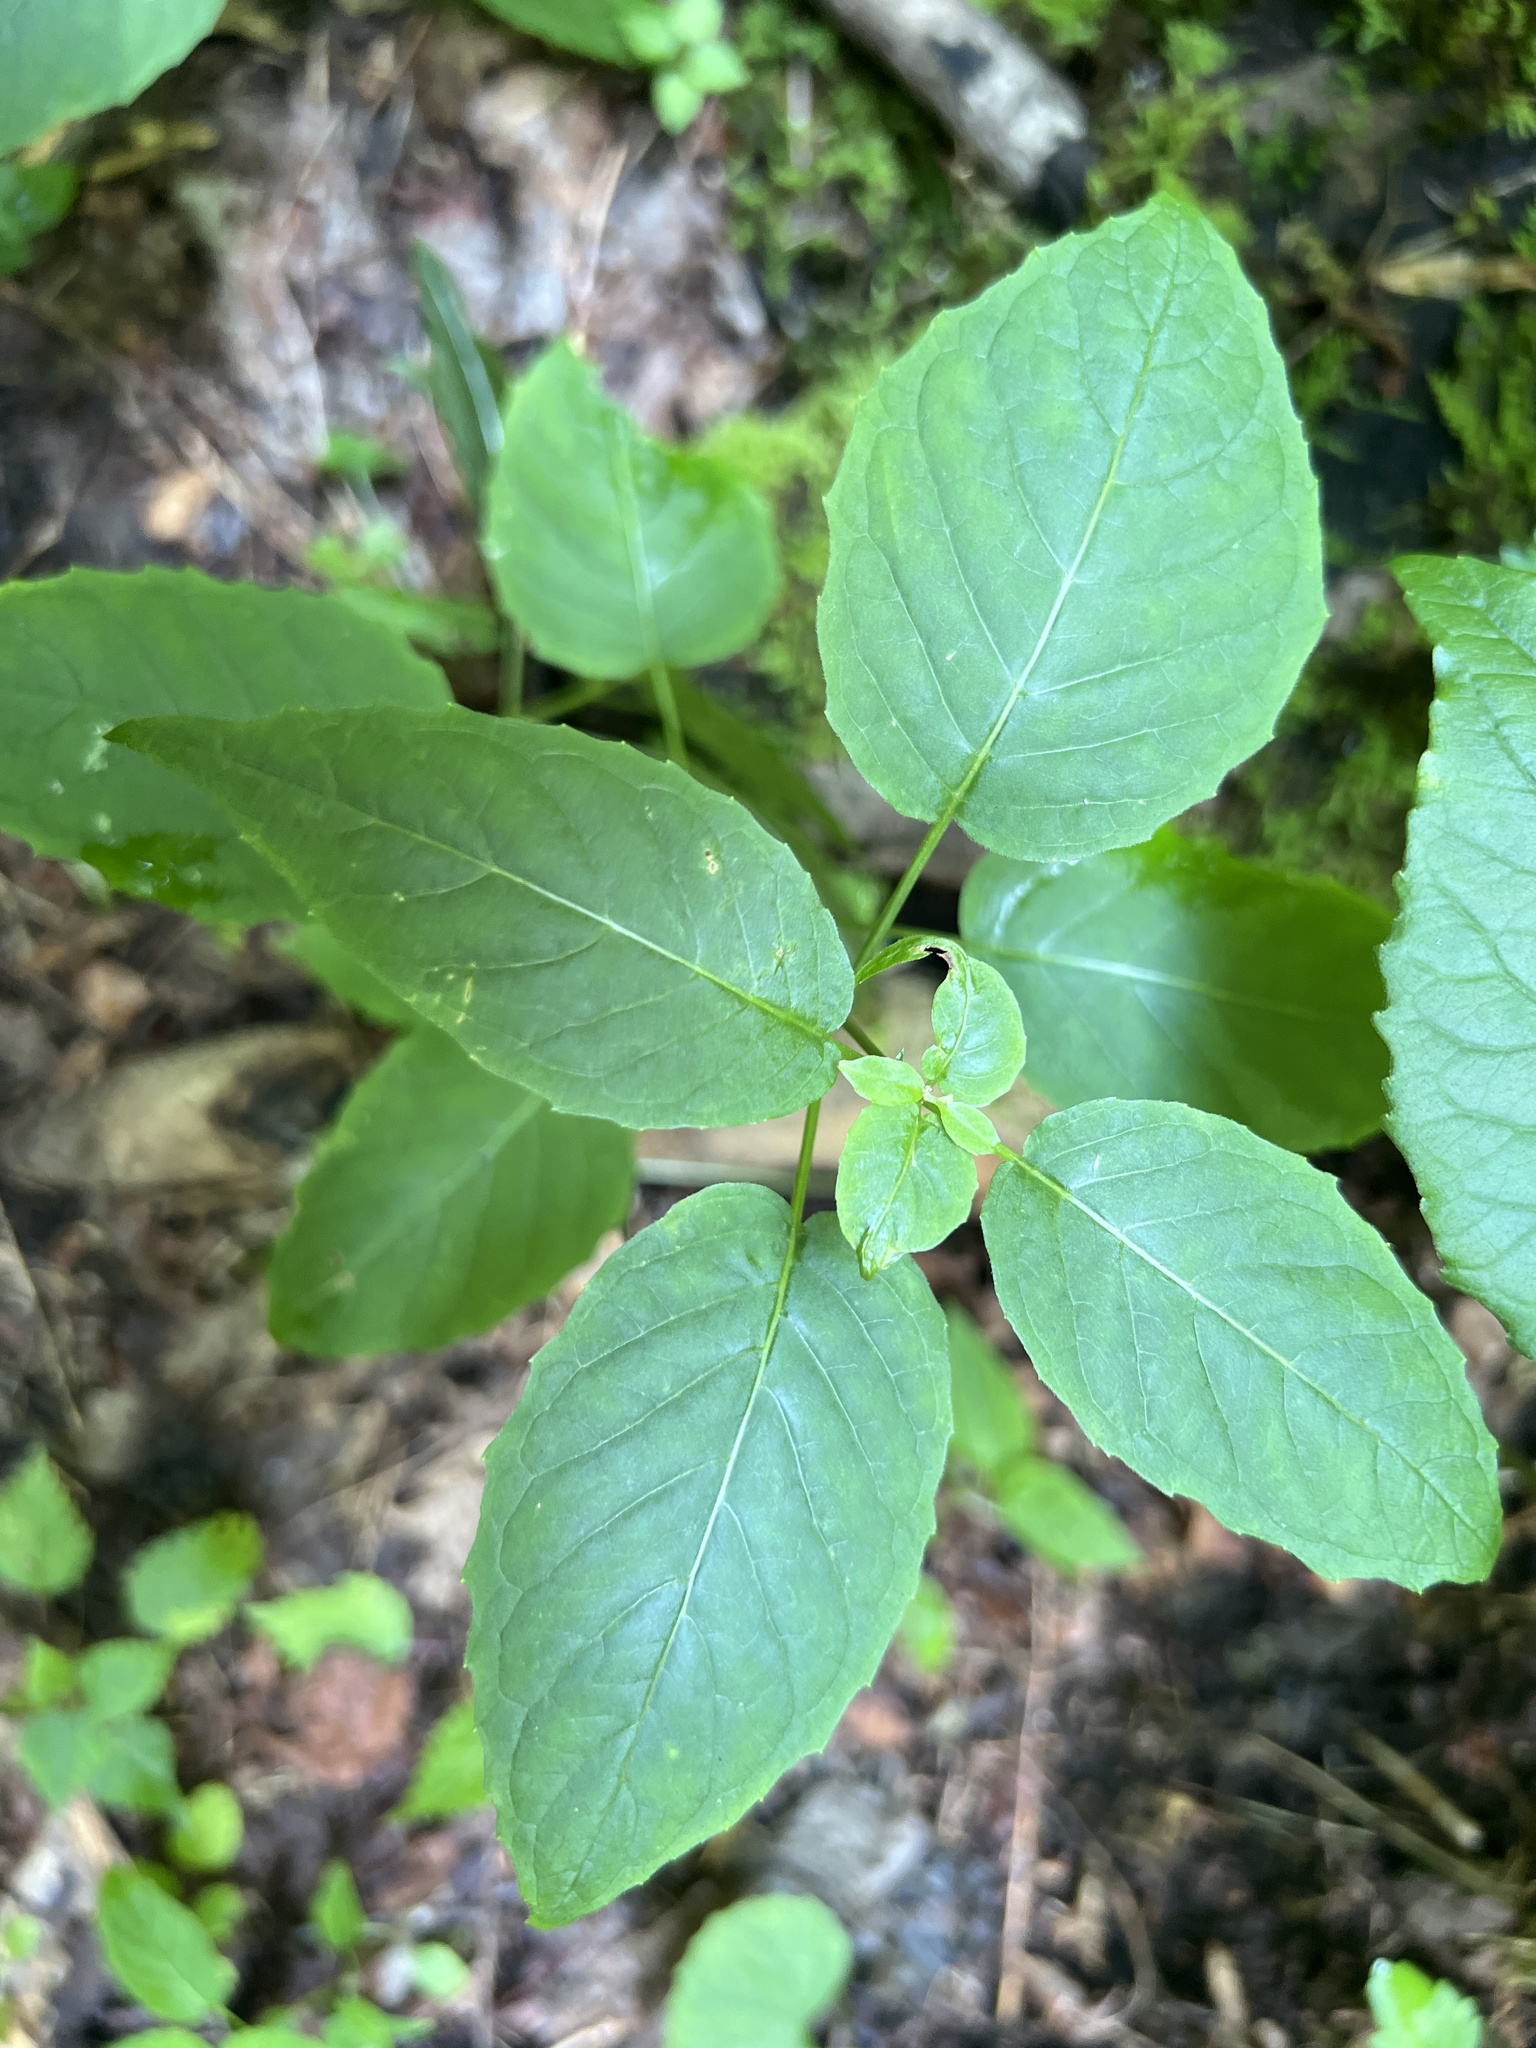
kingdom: Plantae
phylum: Tracheophyta
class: Magnoliopsida
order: Myrtales
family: Onagraceae
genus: Circaea
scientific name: Circaea canadensis
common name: Broad-leaved enchanter's nightshade
